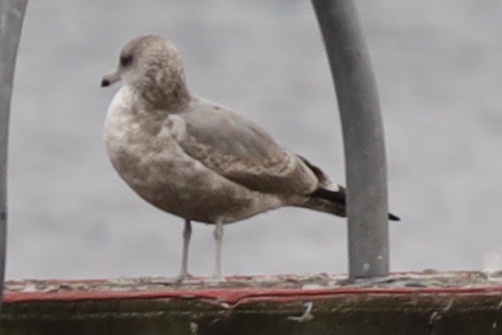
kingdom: Animalia
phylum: Chordata
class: Aves
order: Charadriiformes
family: Laridae
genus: Larus
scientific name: Larus californicus
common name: California gull
